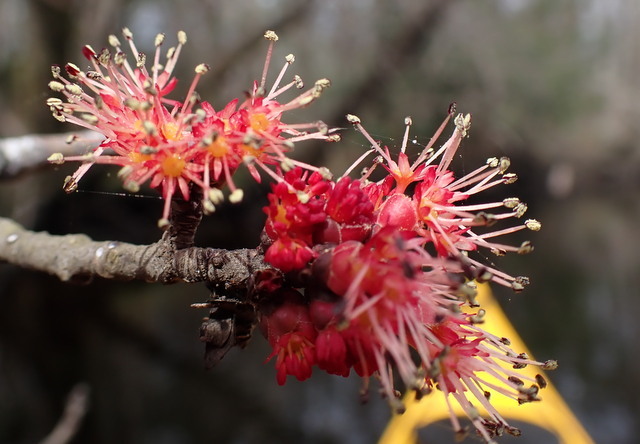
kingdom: Plantae
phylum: Tracheophyta
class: Magnoliopsida
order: Sapindales
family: Sapindaceae
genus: Acer
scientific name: Acer rubrum
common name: Red maple
